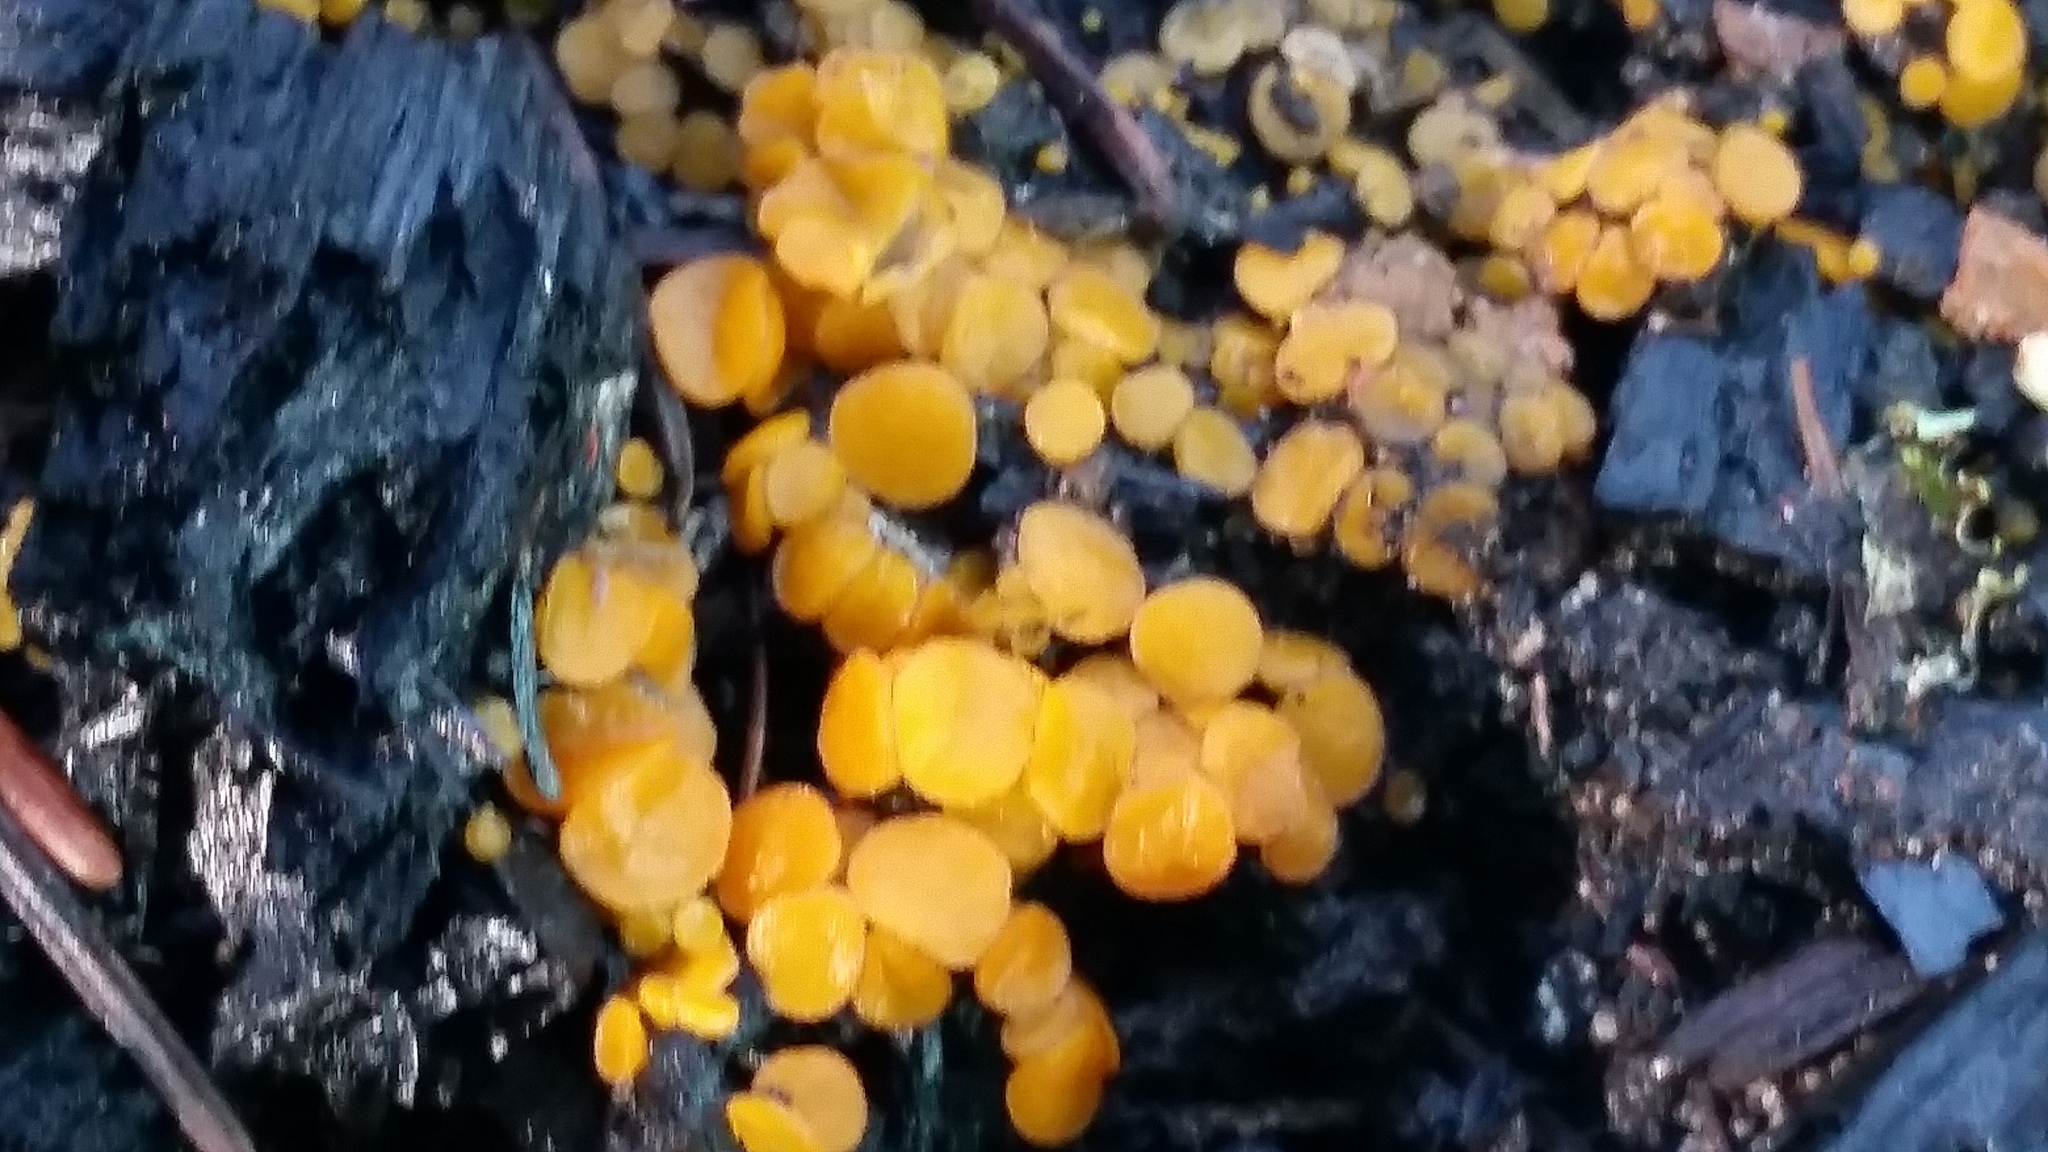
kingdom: Fungi
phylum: Ascomycota
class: Pezizomycetes
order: Pezizales
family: Pyronemataceae
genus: Anthracobia
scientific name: Anthracobia melaloma
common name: Charcoal eyelash
